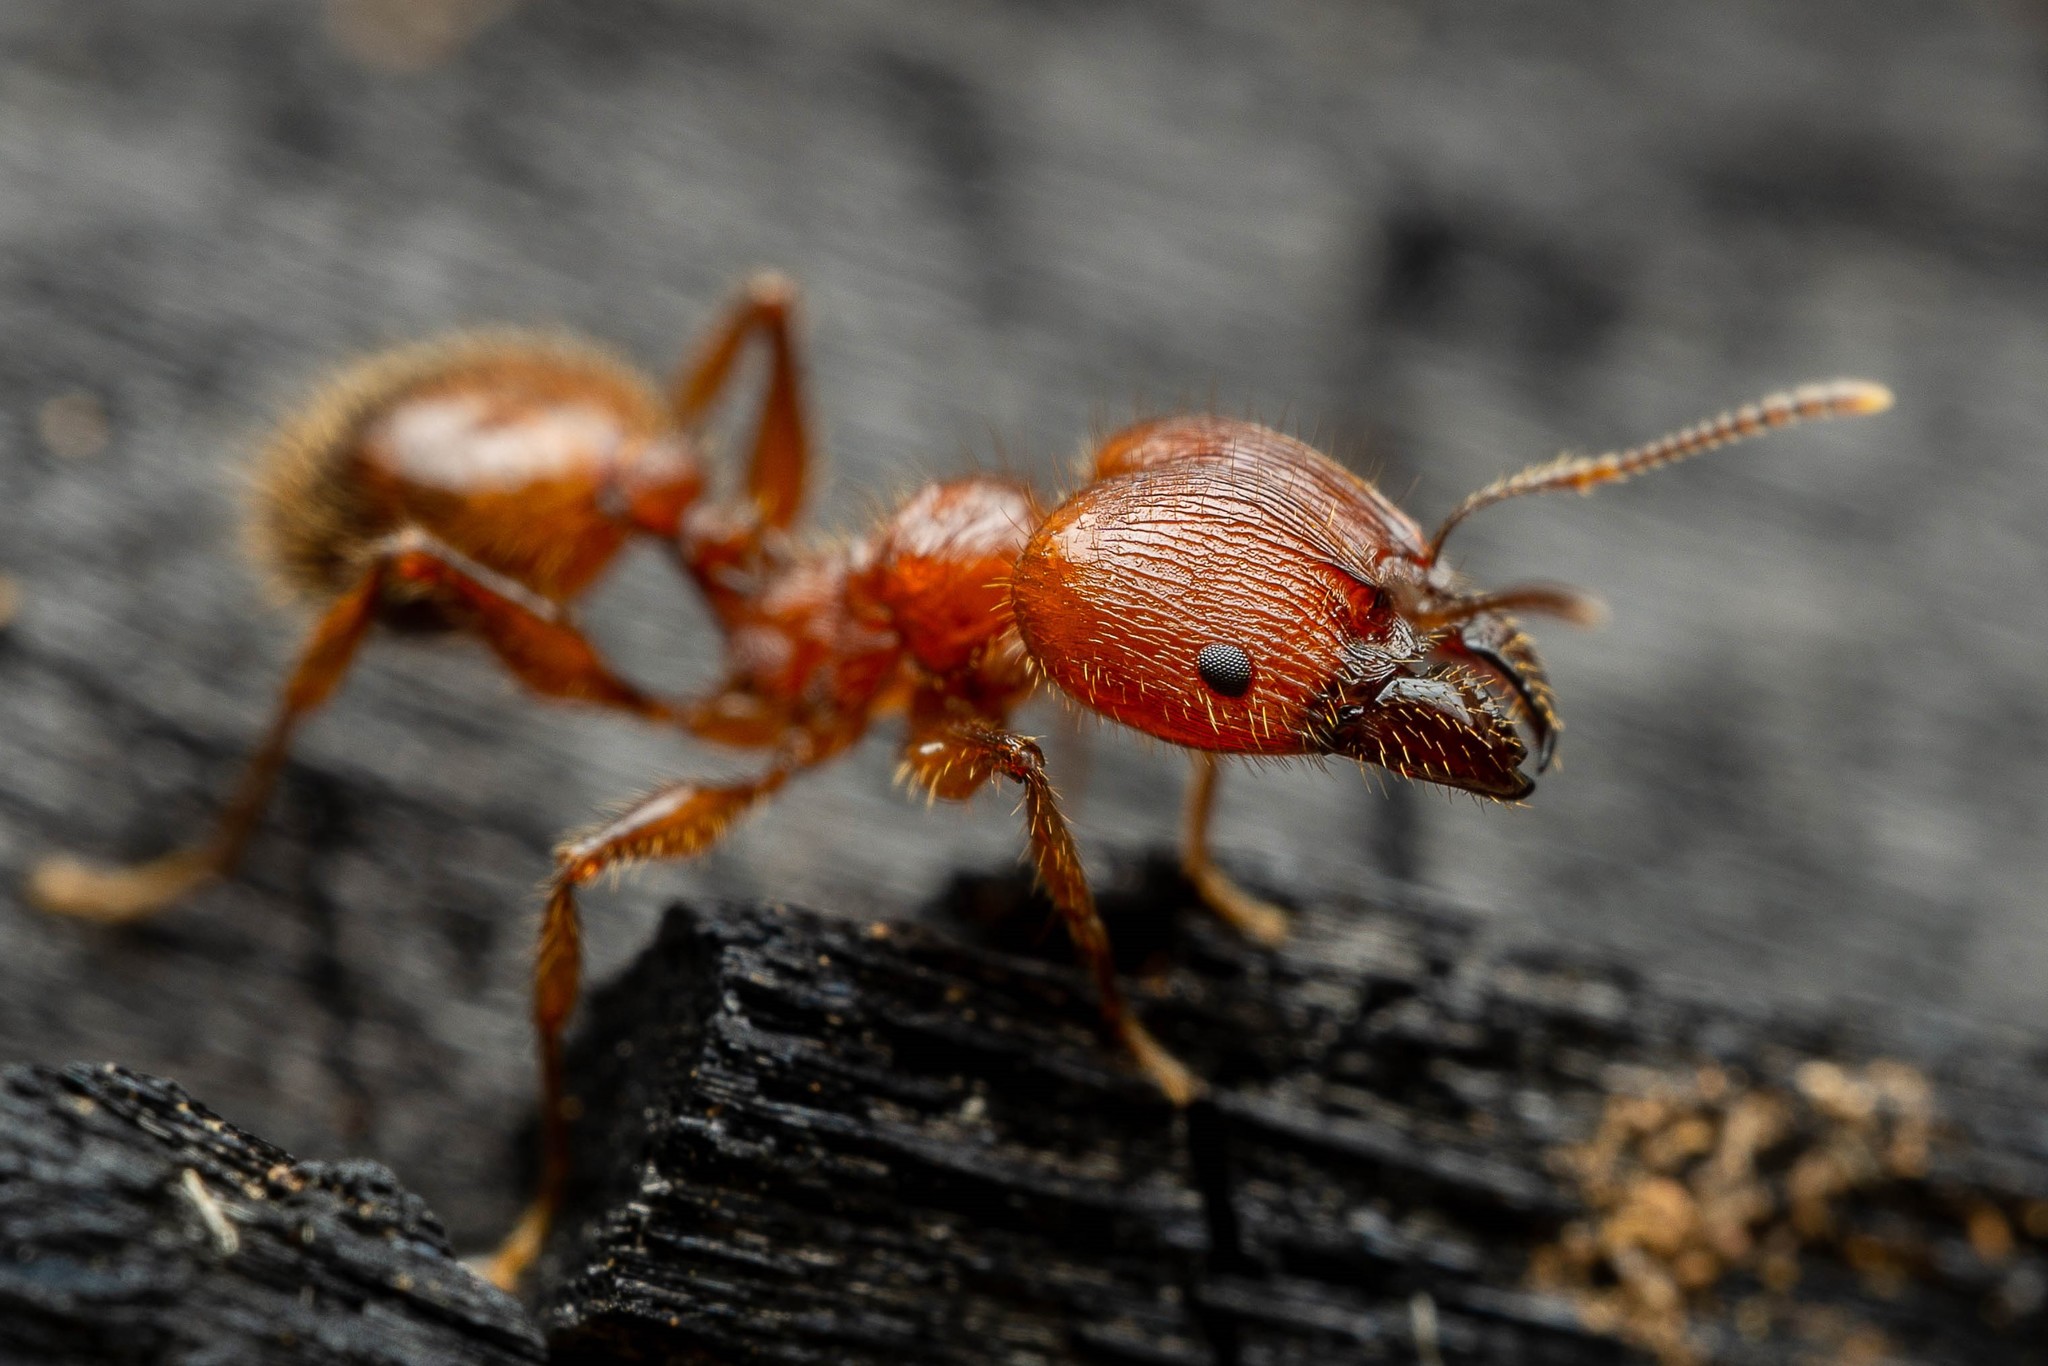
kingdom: Animalia
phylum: Arthropoda
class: Insecta
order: Hymenoptera
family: Formicidae
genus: Pheidole
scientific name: Pheidole titanis
